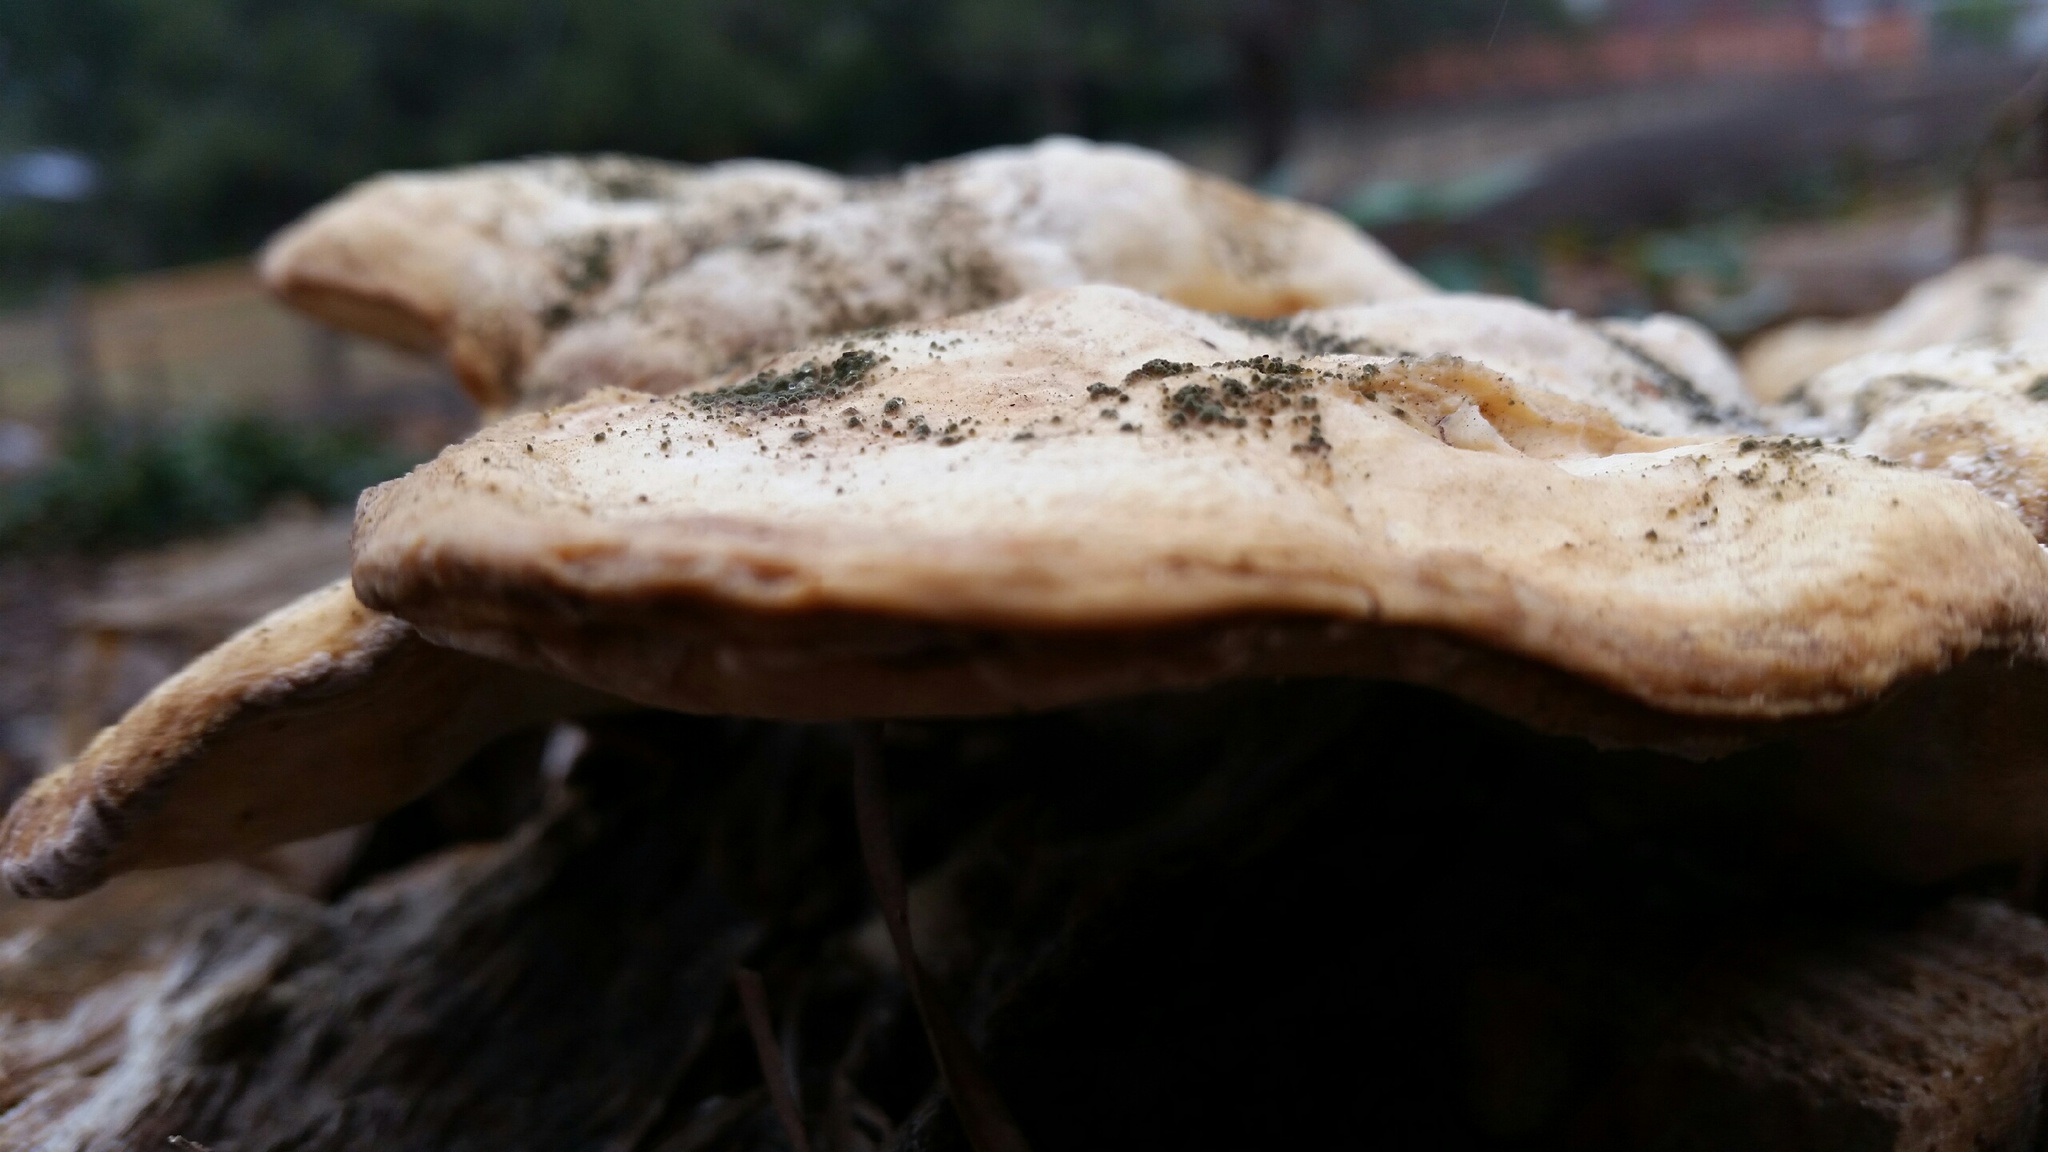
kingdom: Fungi
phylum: Basidiomycota
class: Agaricomycetes
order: Polyporales
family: Laetiporaceae
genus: Laetiporus
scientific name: Laetiporus gilbertsonii
